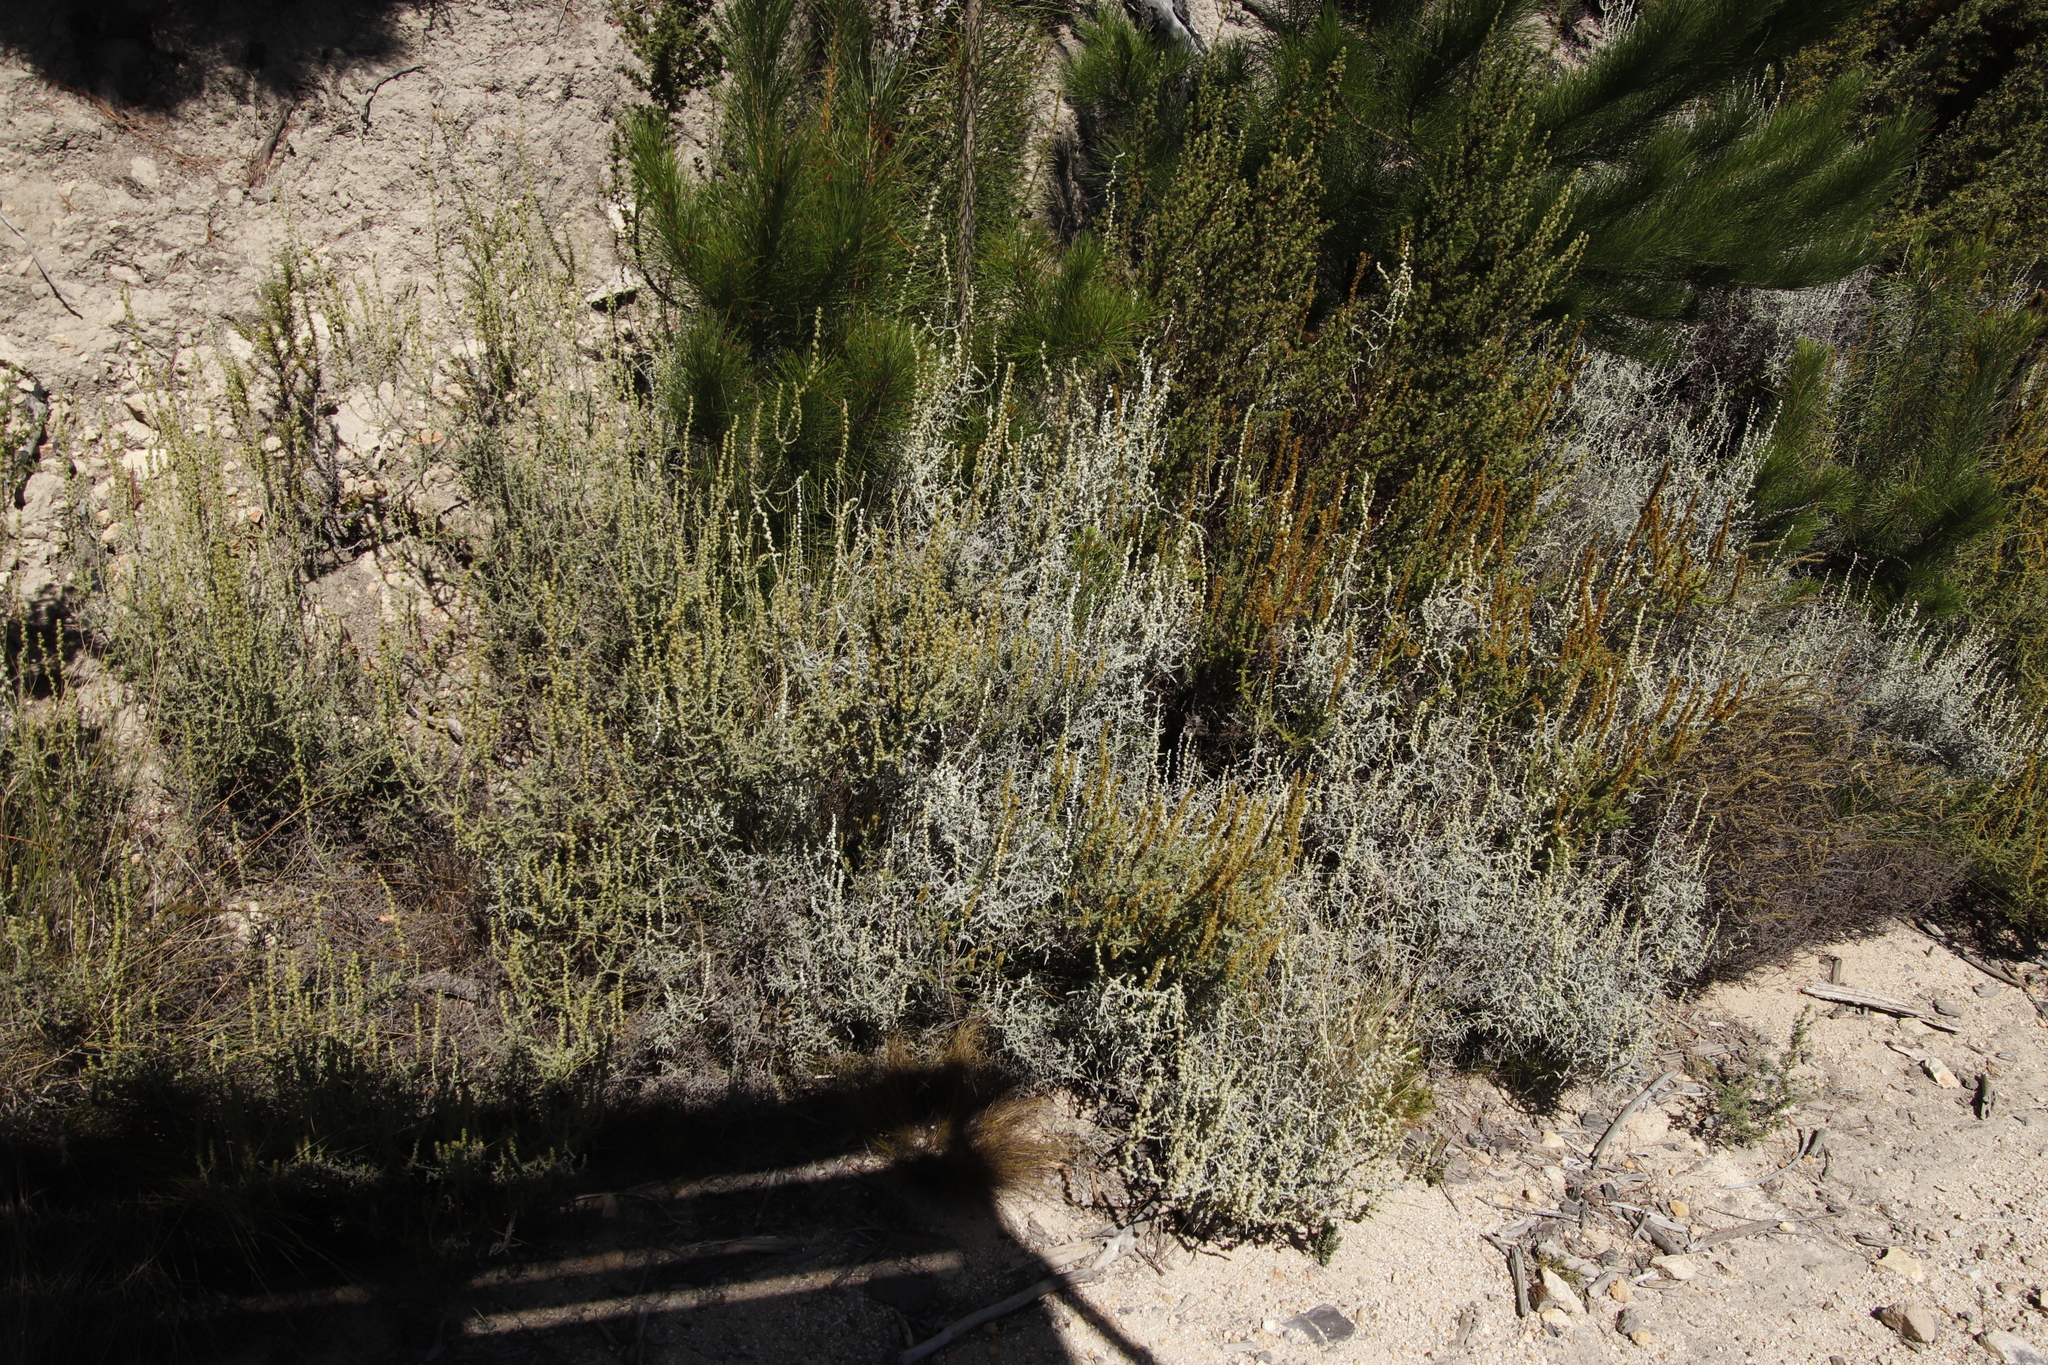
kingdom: Plantae
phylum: Tracheophyta
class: Magnoliopsida
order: Asterales
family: Asteraceae
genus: Seriphium
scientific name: Seriphium plumosum
